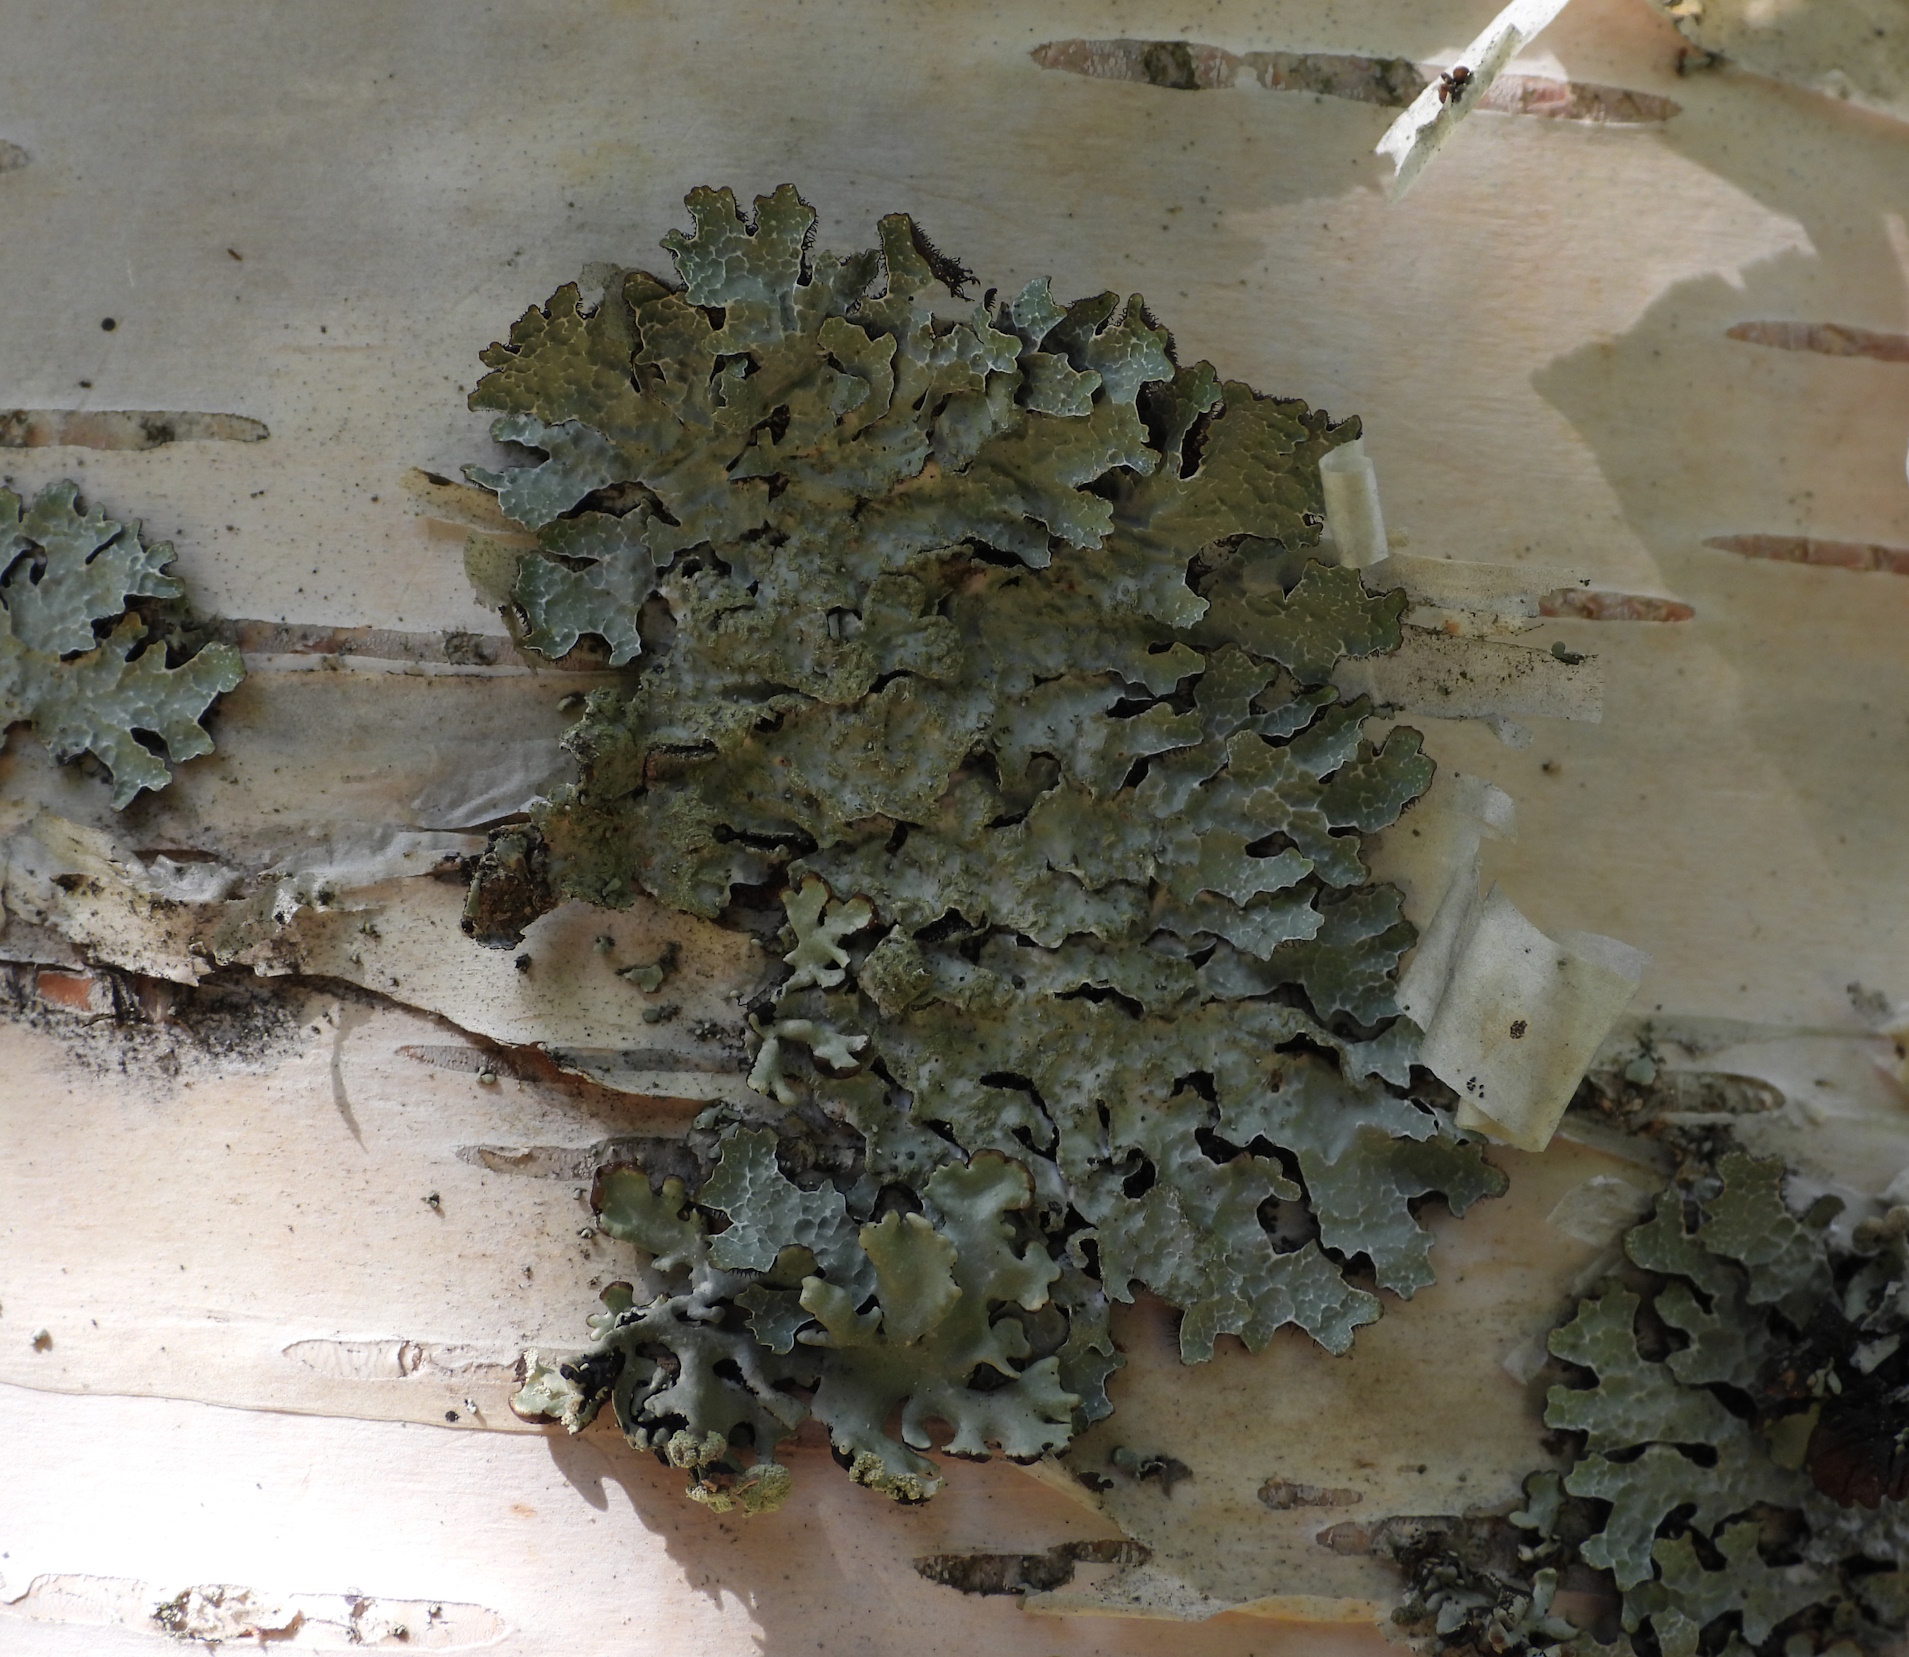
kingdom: Fungi
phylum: Ascomycota
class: Lecanoromycetes
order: Lecanorales
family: Parmeliaceae
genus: Parmelia
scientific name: Parmelia sulcata
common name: Netted shield lichen
